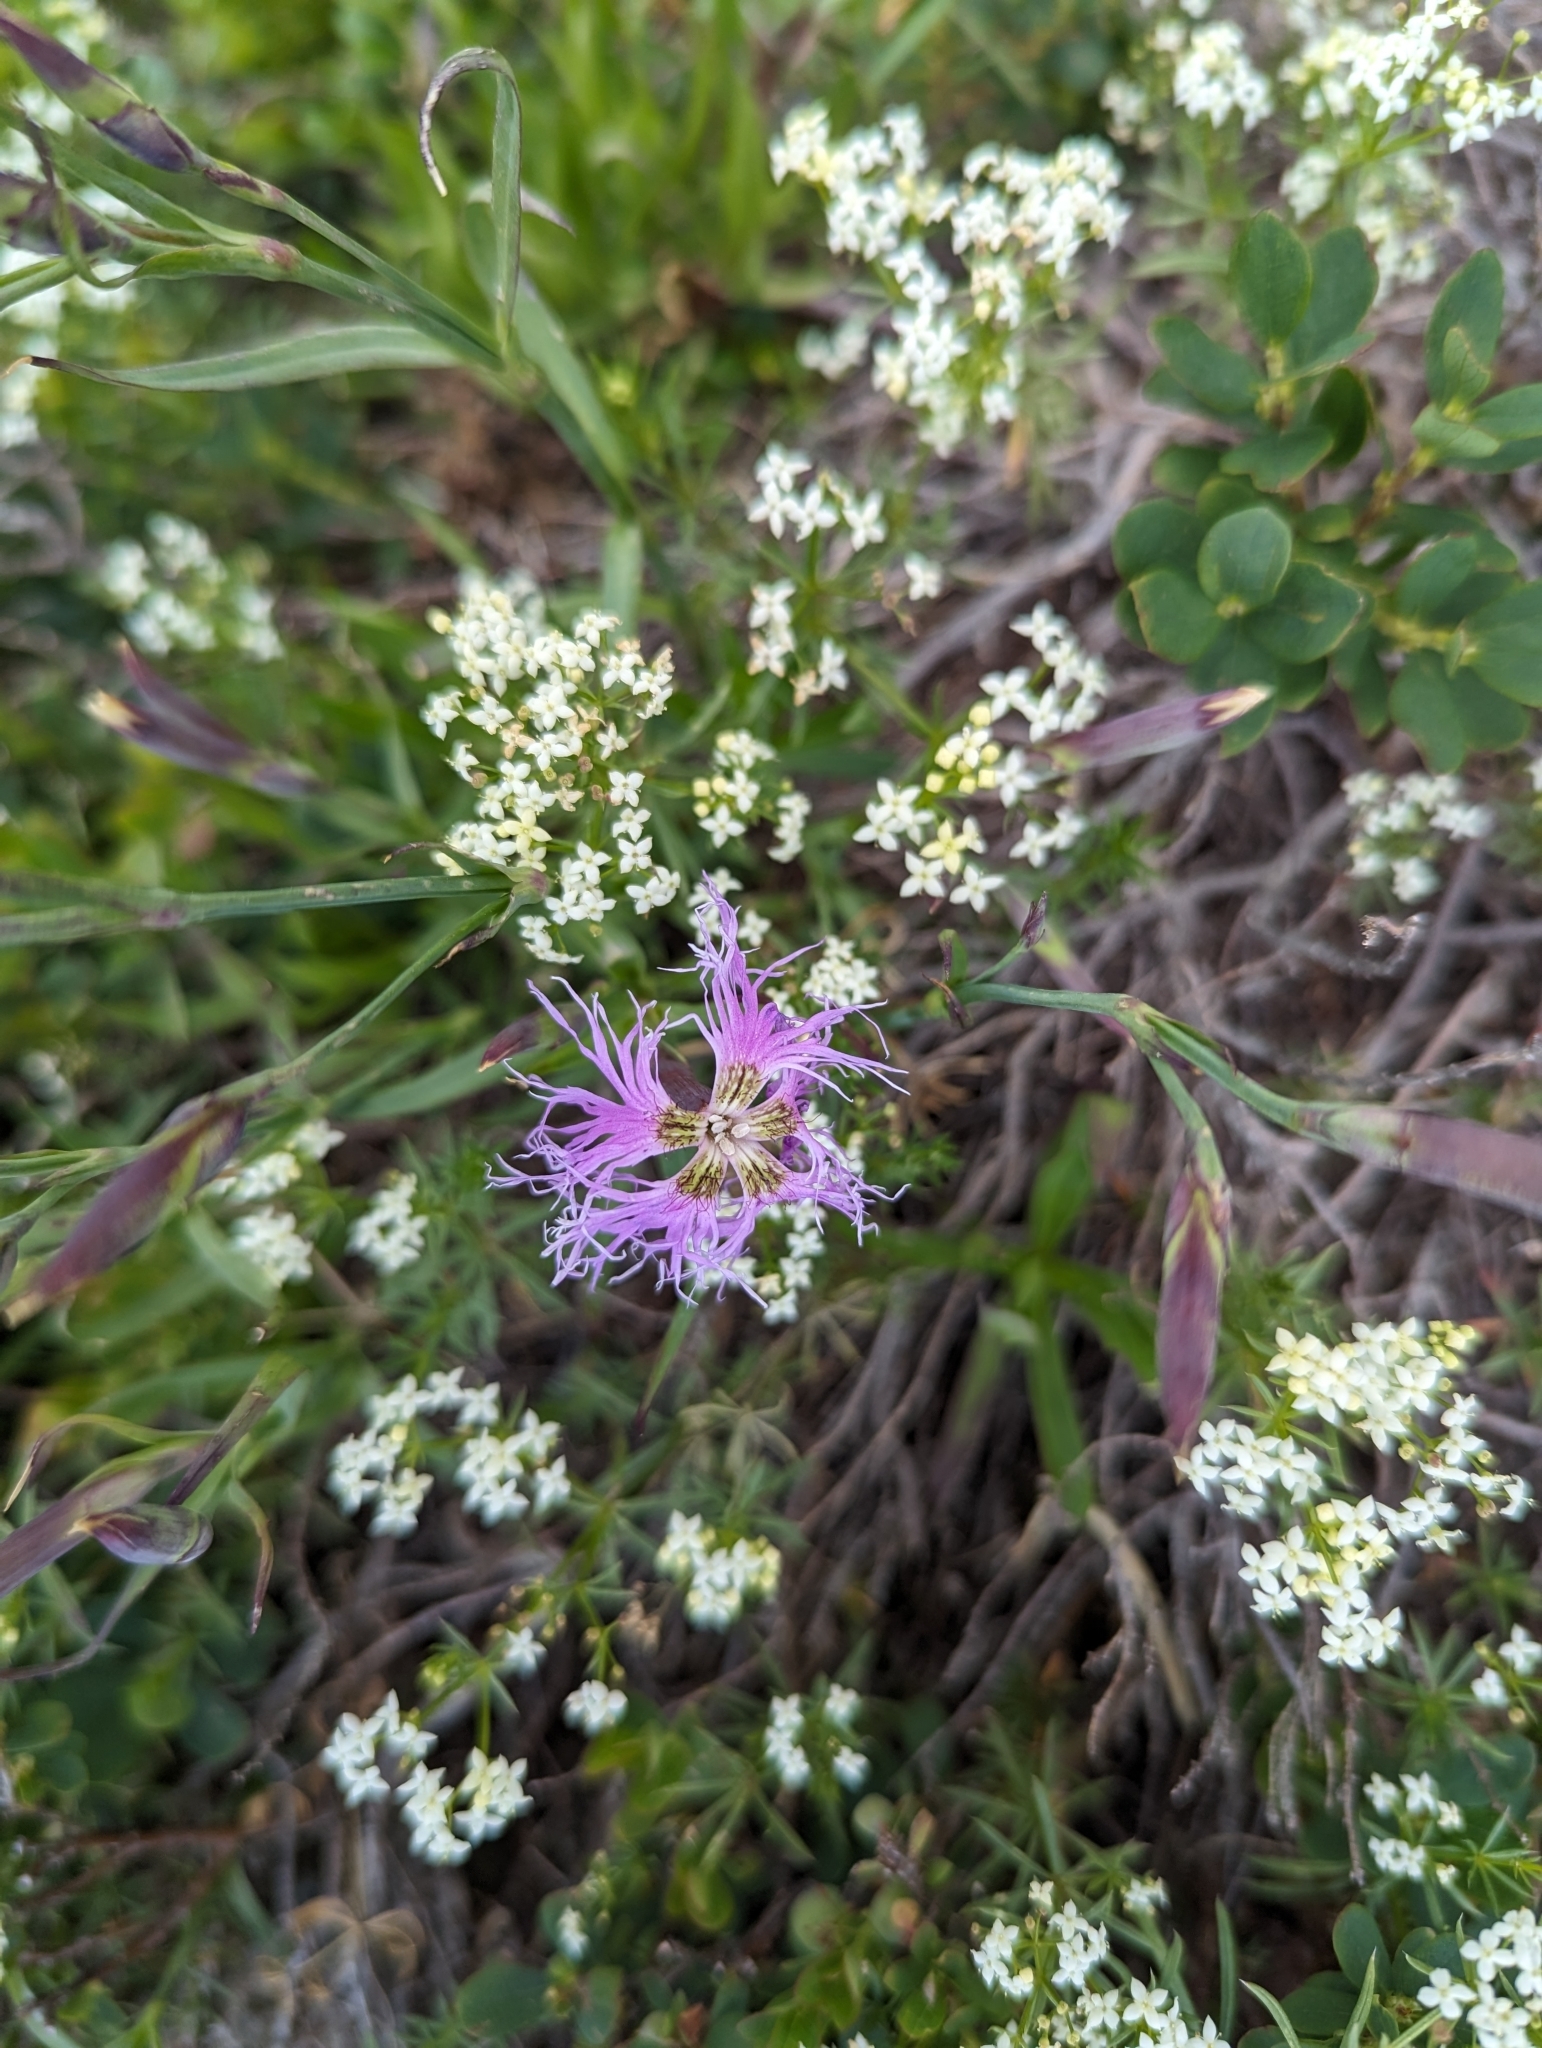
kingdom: Plantae
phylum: Tracheophyta
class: Magnoliopsida
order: Caryophyllales
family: Caryophyllaceae
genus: Dianthus
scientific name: Dianthus superbus
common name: Fringed pink
